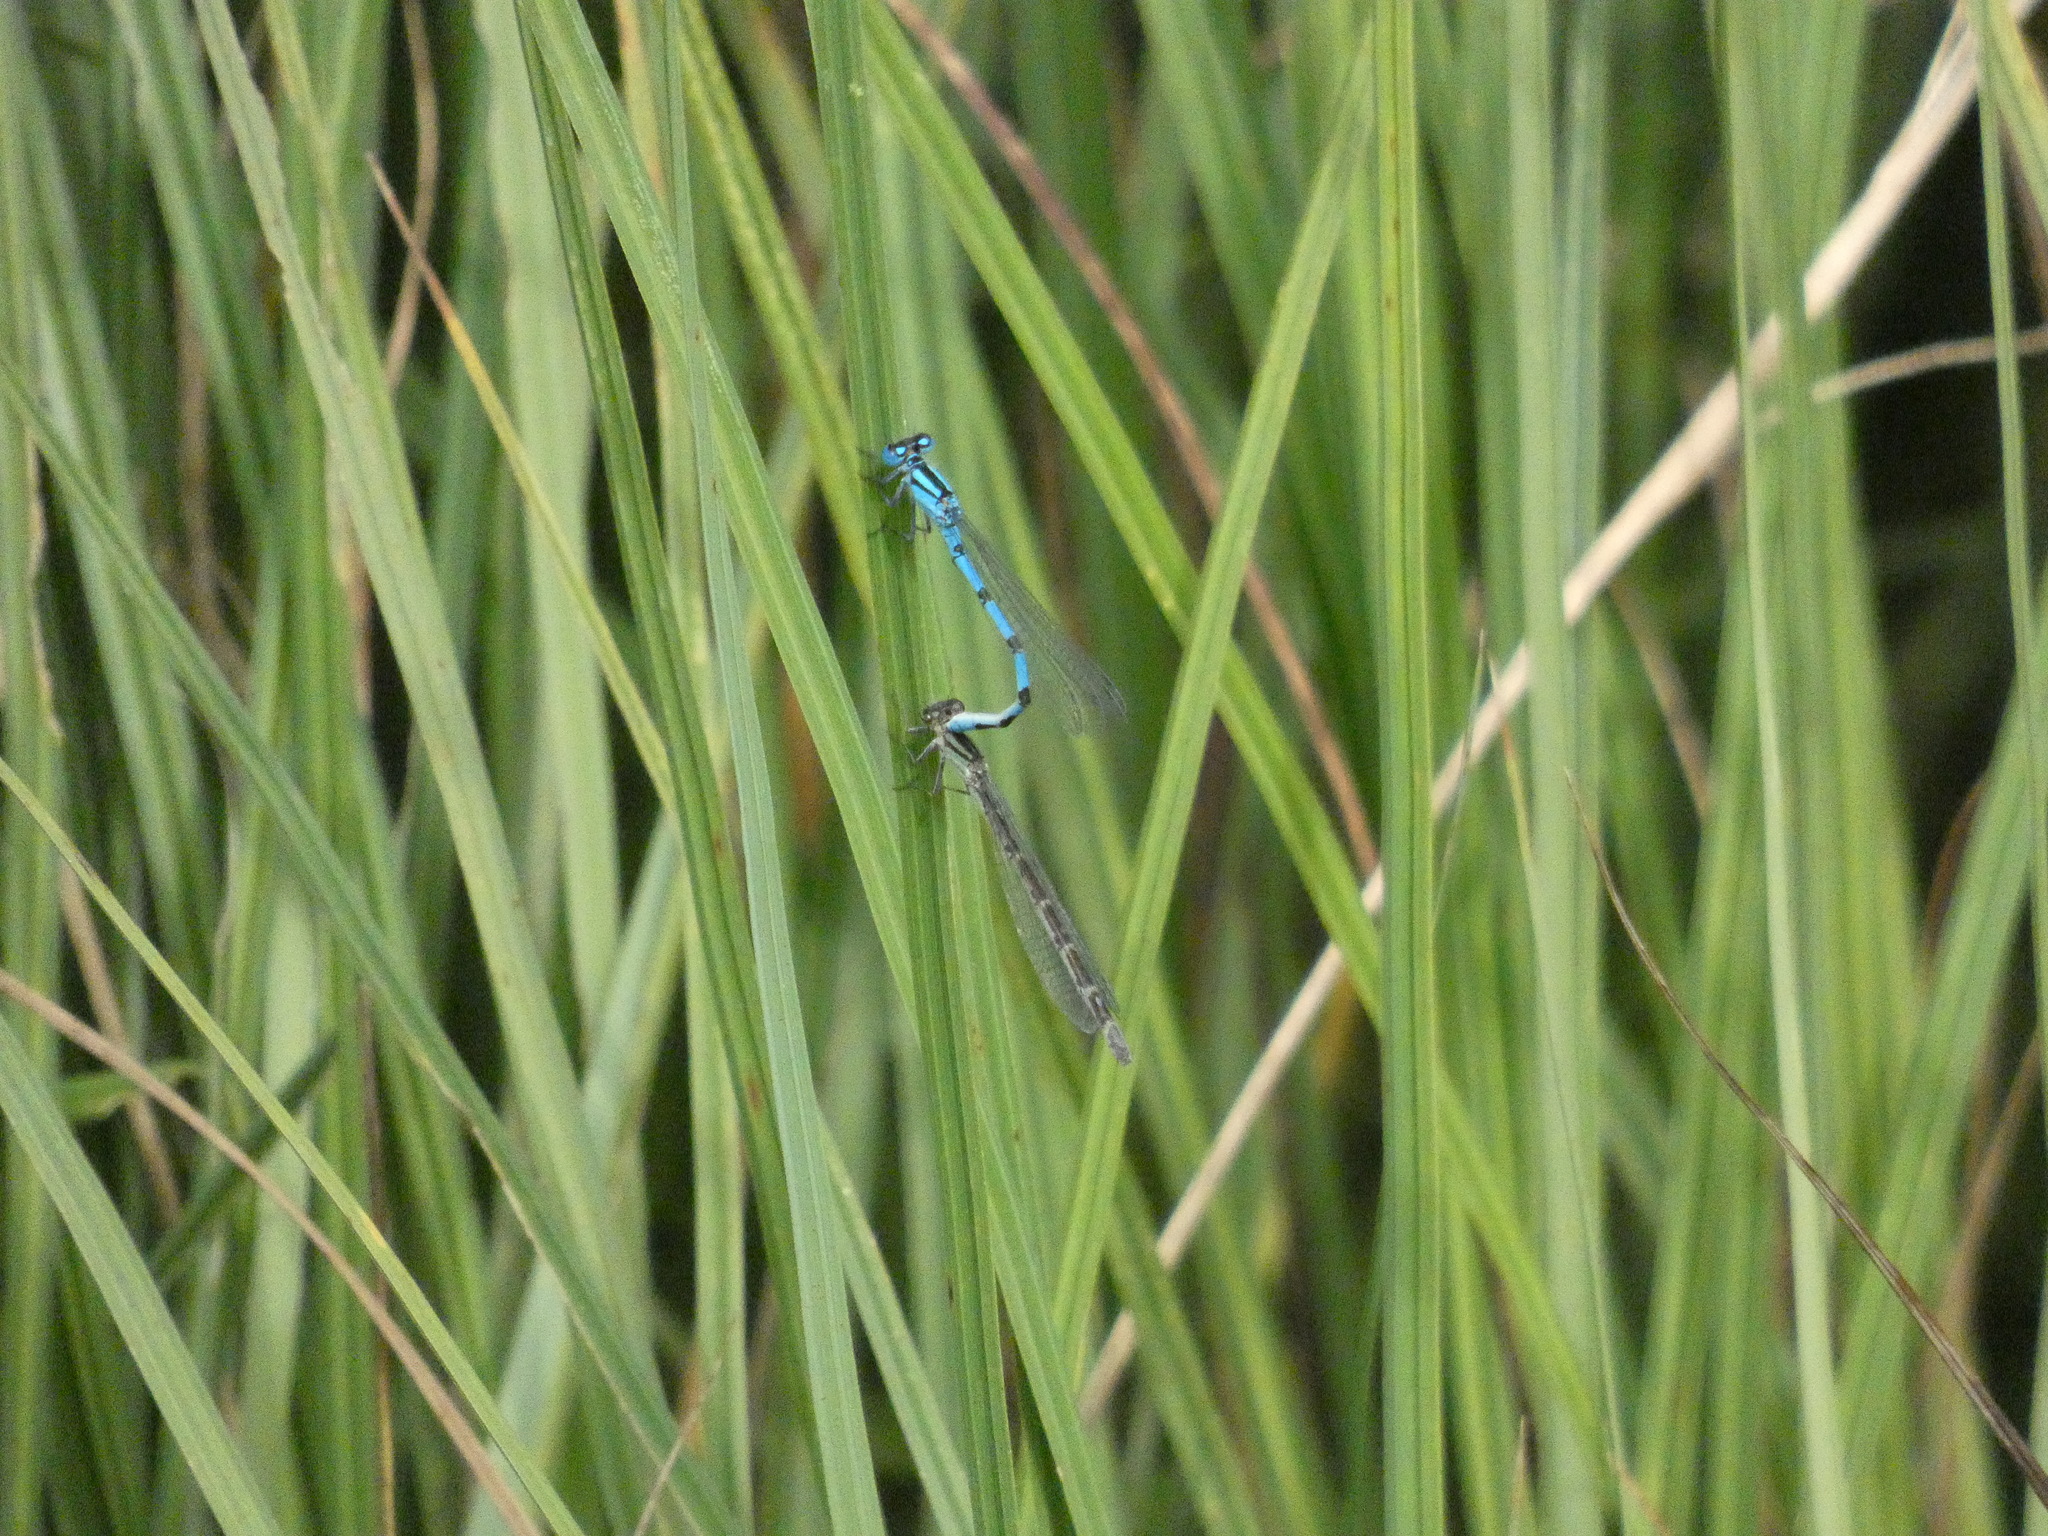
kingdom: Animalia
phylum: Arthropoda
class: Insecta
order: Odonata
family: Coenagrionidae
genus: Enallagma
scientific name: Enallagma cyathigerum
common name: Common blue damselfly
